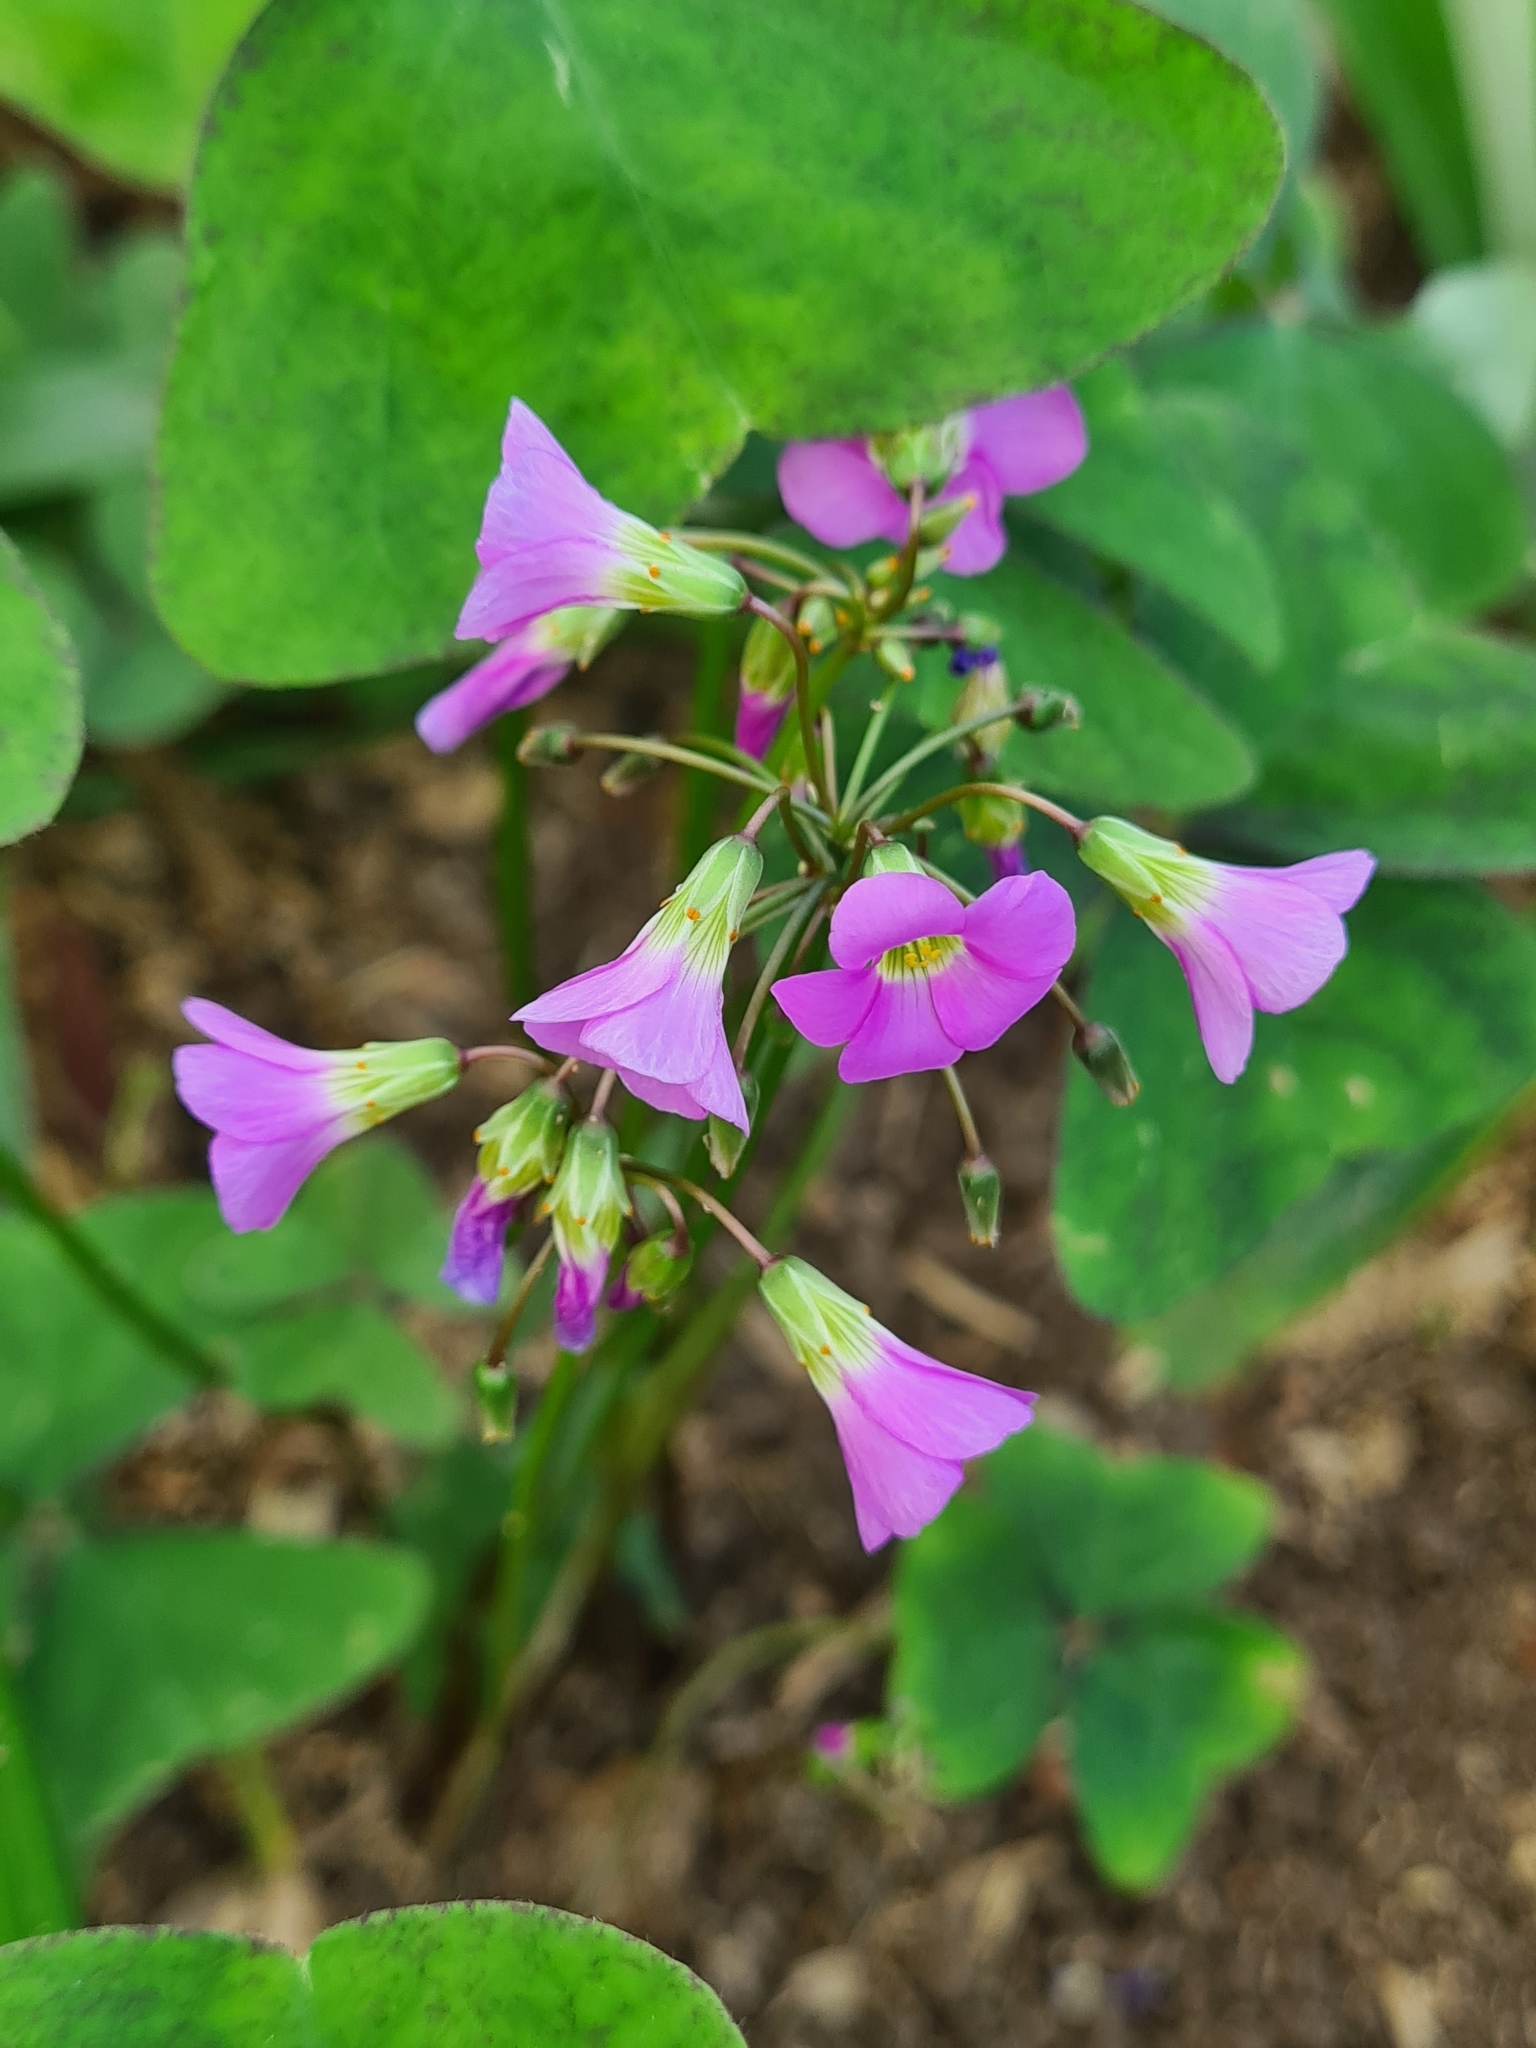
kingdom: Plantae
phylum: Tracheophyta
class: Magnoliopsida
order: Oxalidales
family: Oxalidaceae
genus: Oxalis
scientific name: Oxalis latifolia
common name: Garden pink-sorrel
